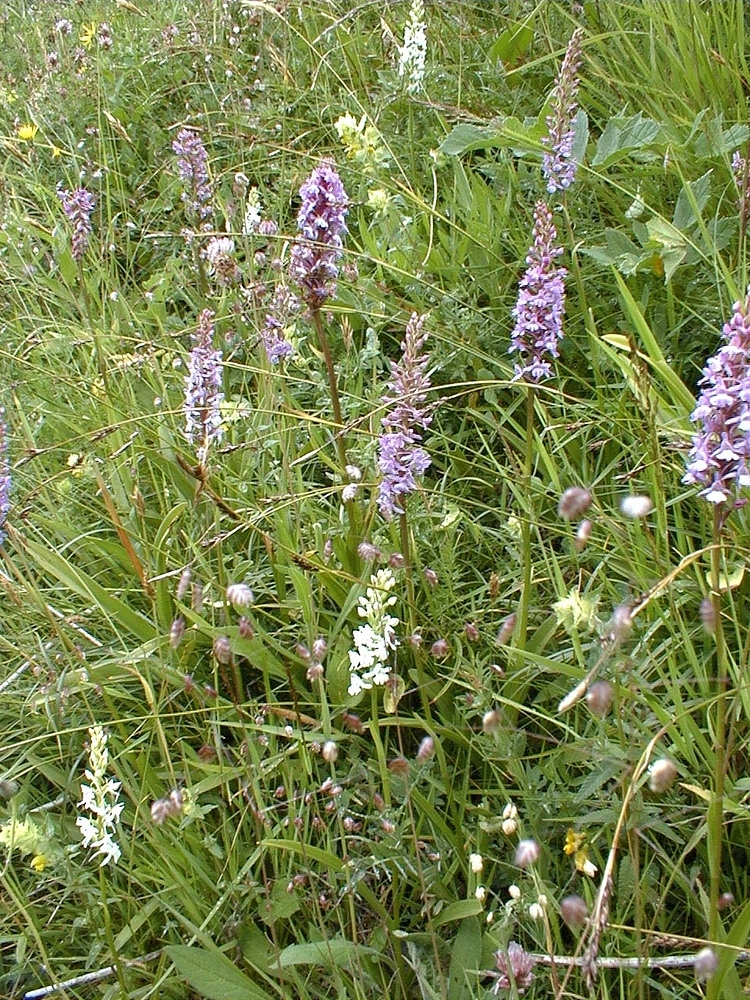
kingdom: Plantae
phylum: Tracheophyta
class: Liliopsida
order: Asparagales
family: Orchidaceae
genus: Gymnadenia
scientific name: Gymnadenia conopsea
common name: Fragrant orchid
